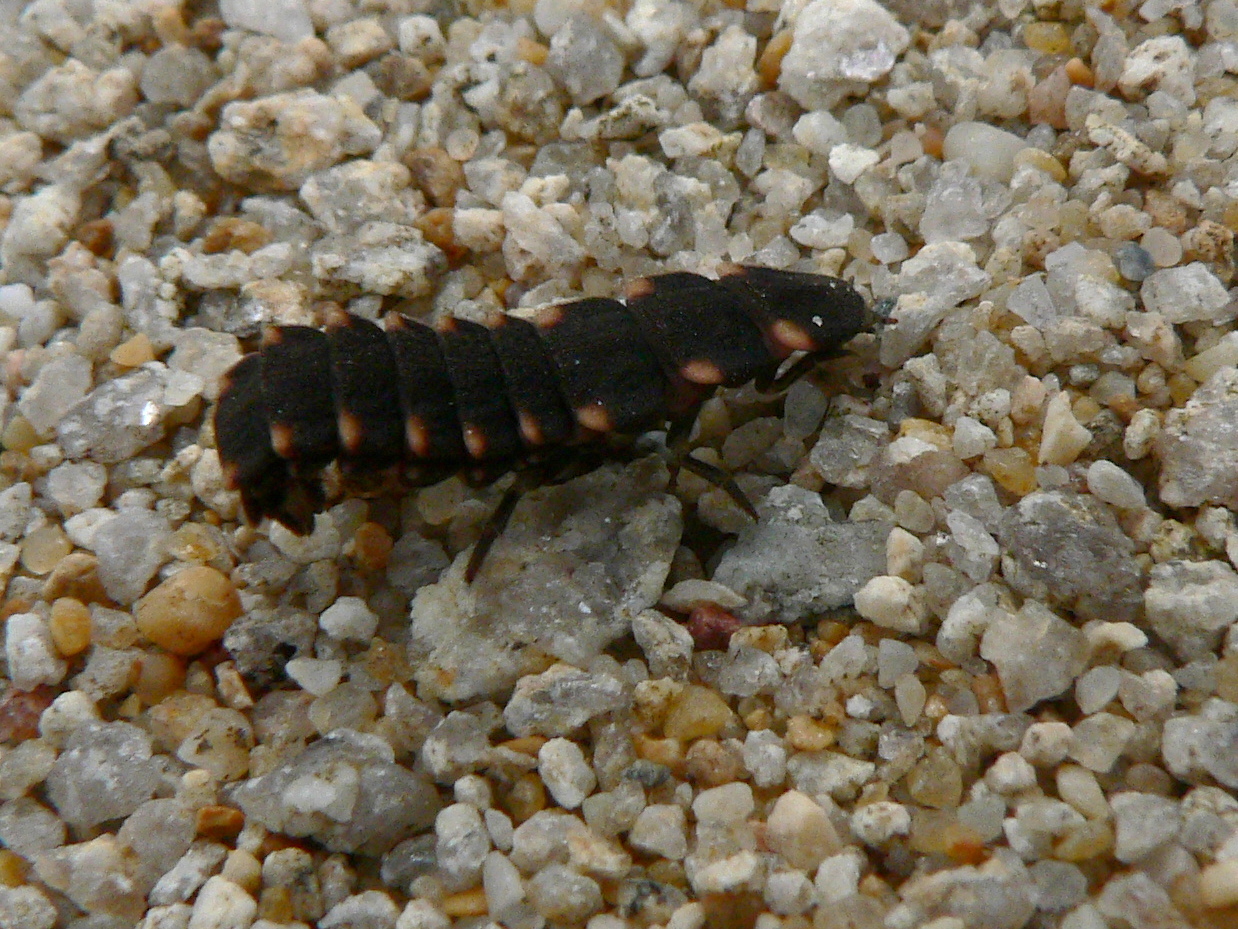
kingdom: Animalia
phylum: Arthropoda
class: Insecta
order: Coleoptera
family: Lampyridae
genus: Lampyris
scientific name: Lampyris noctiluca
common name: Glow-worm
